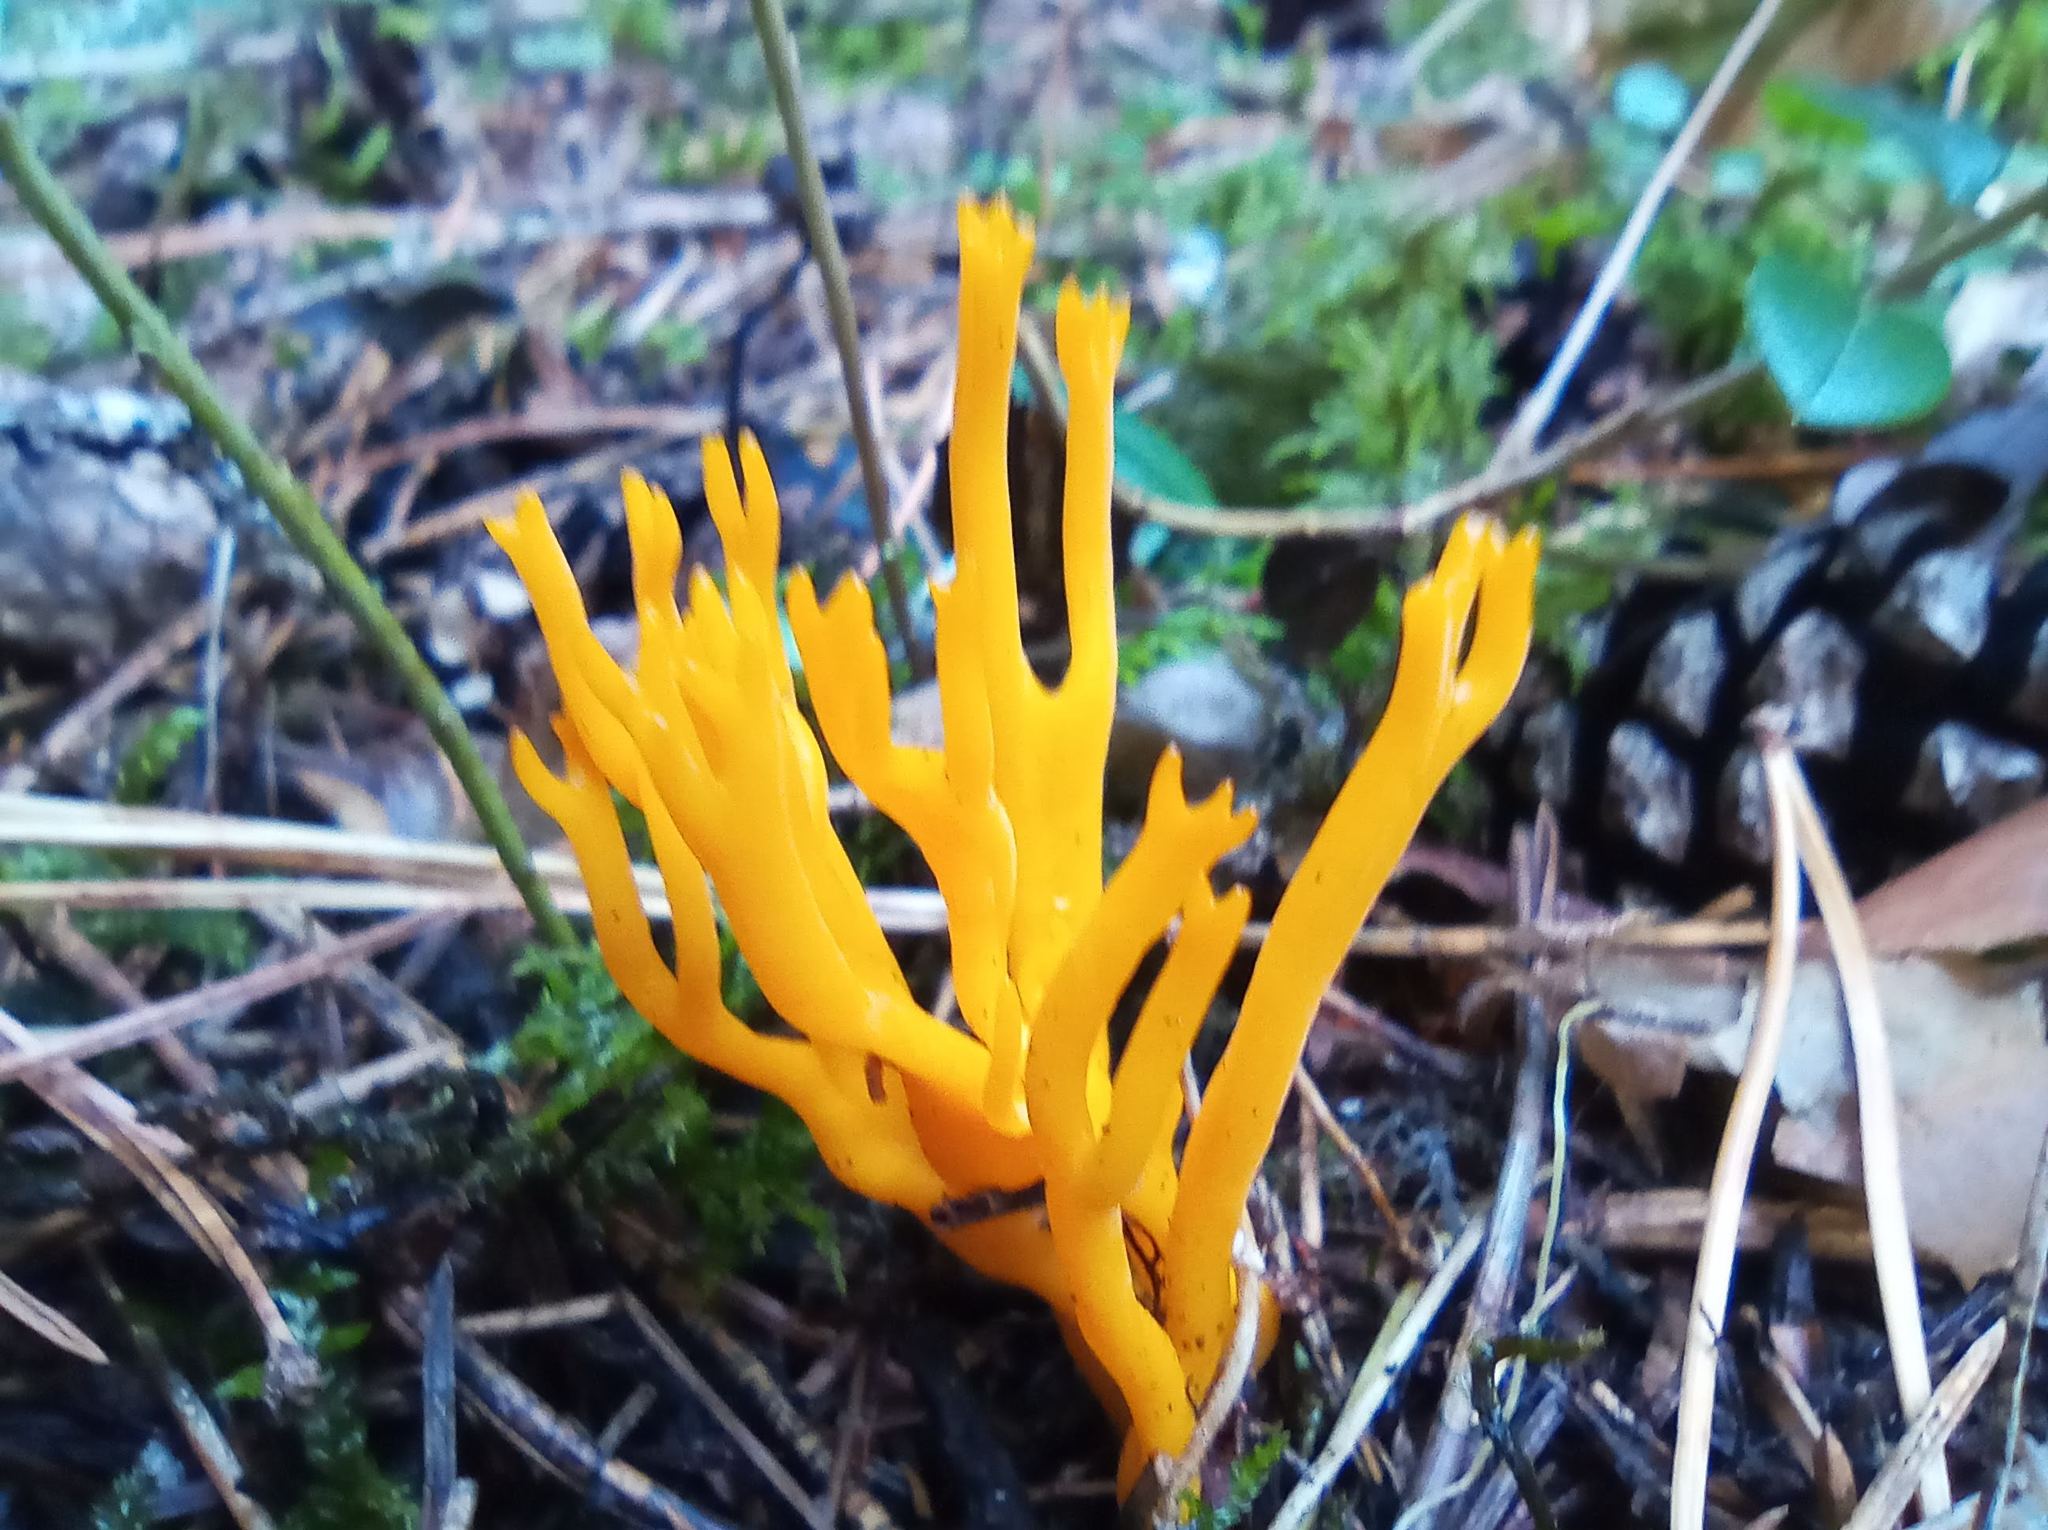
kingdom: Fungi
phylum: Basidiomycota
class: Dacrymycetes
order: Dacrymycetales
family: Dacrymycetaceae
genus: Calocera
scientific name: Calocera viscosa
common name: Yellow stagshorn
